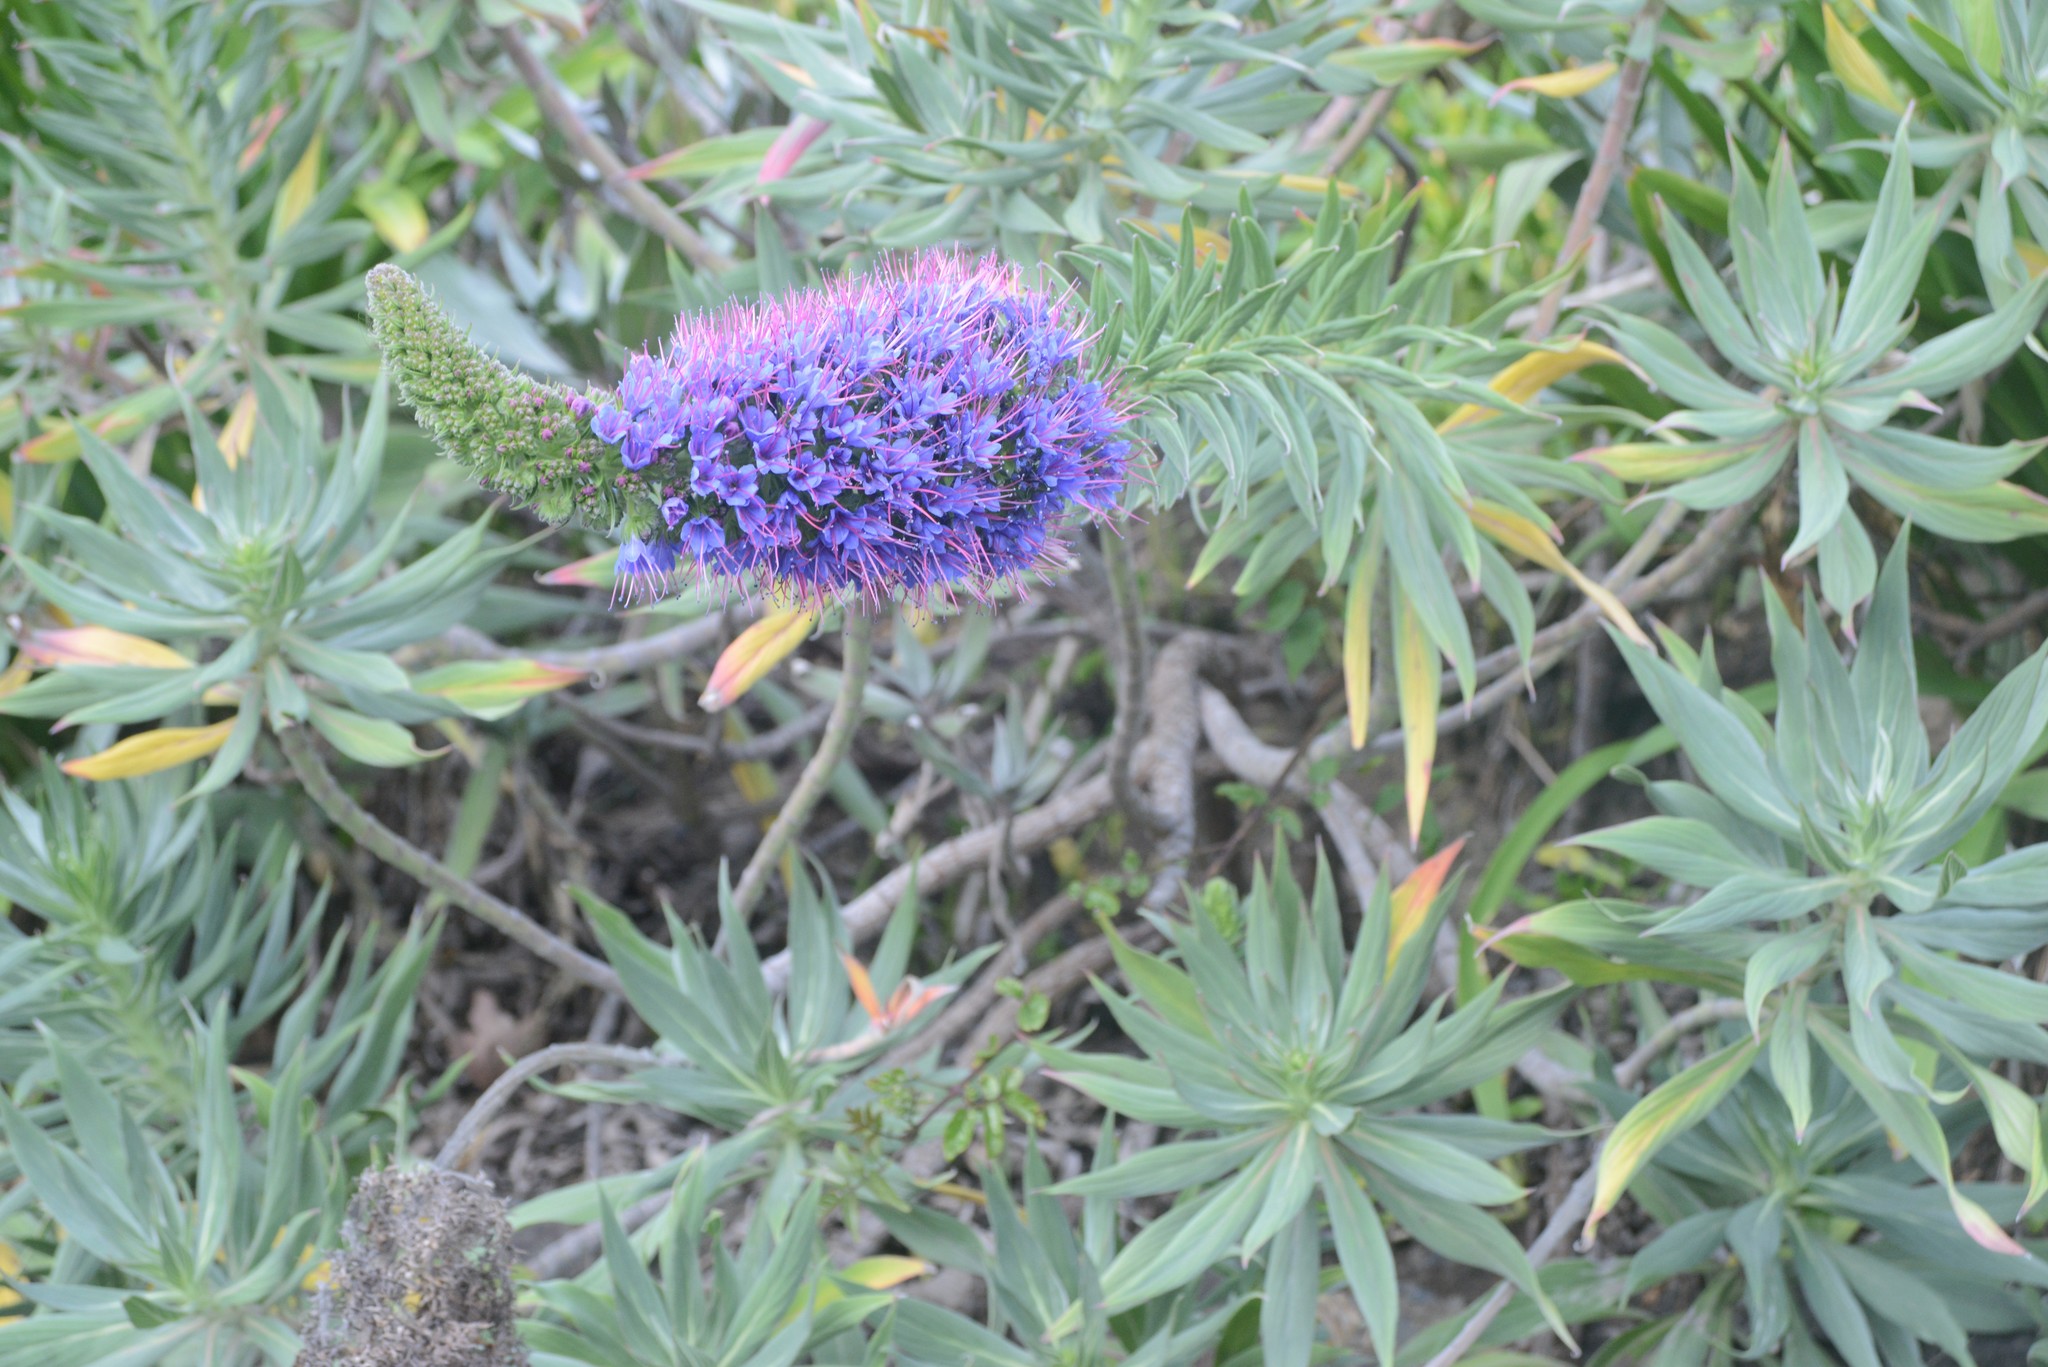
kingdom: Plantae
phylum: Tracheophyta
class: Magnoliopsida
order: Boraginales
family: Boraginaceae
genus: Echium
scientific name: Echium candicans
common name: Pride of madeira
